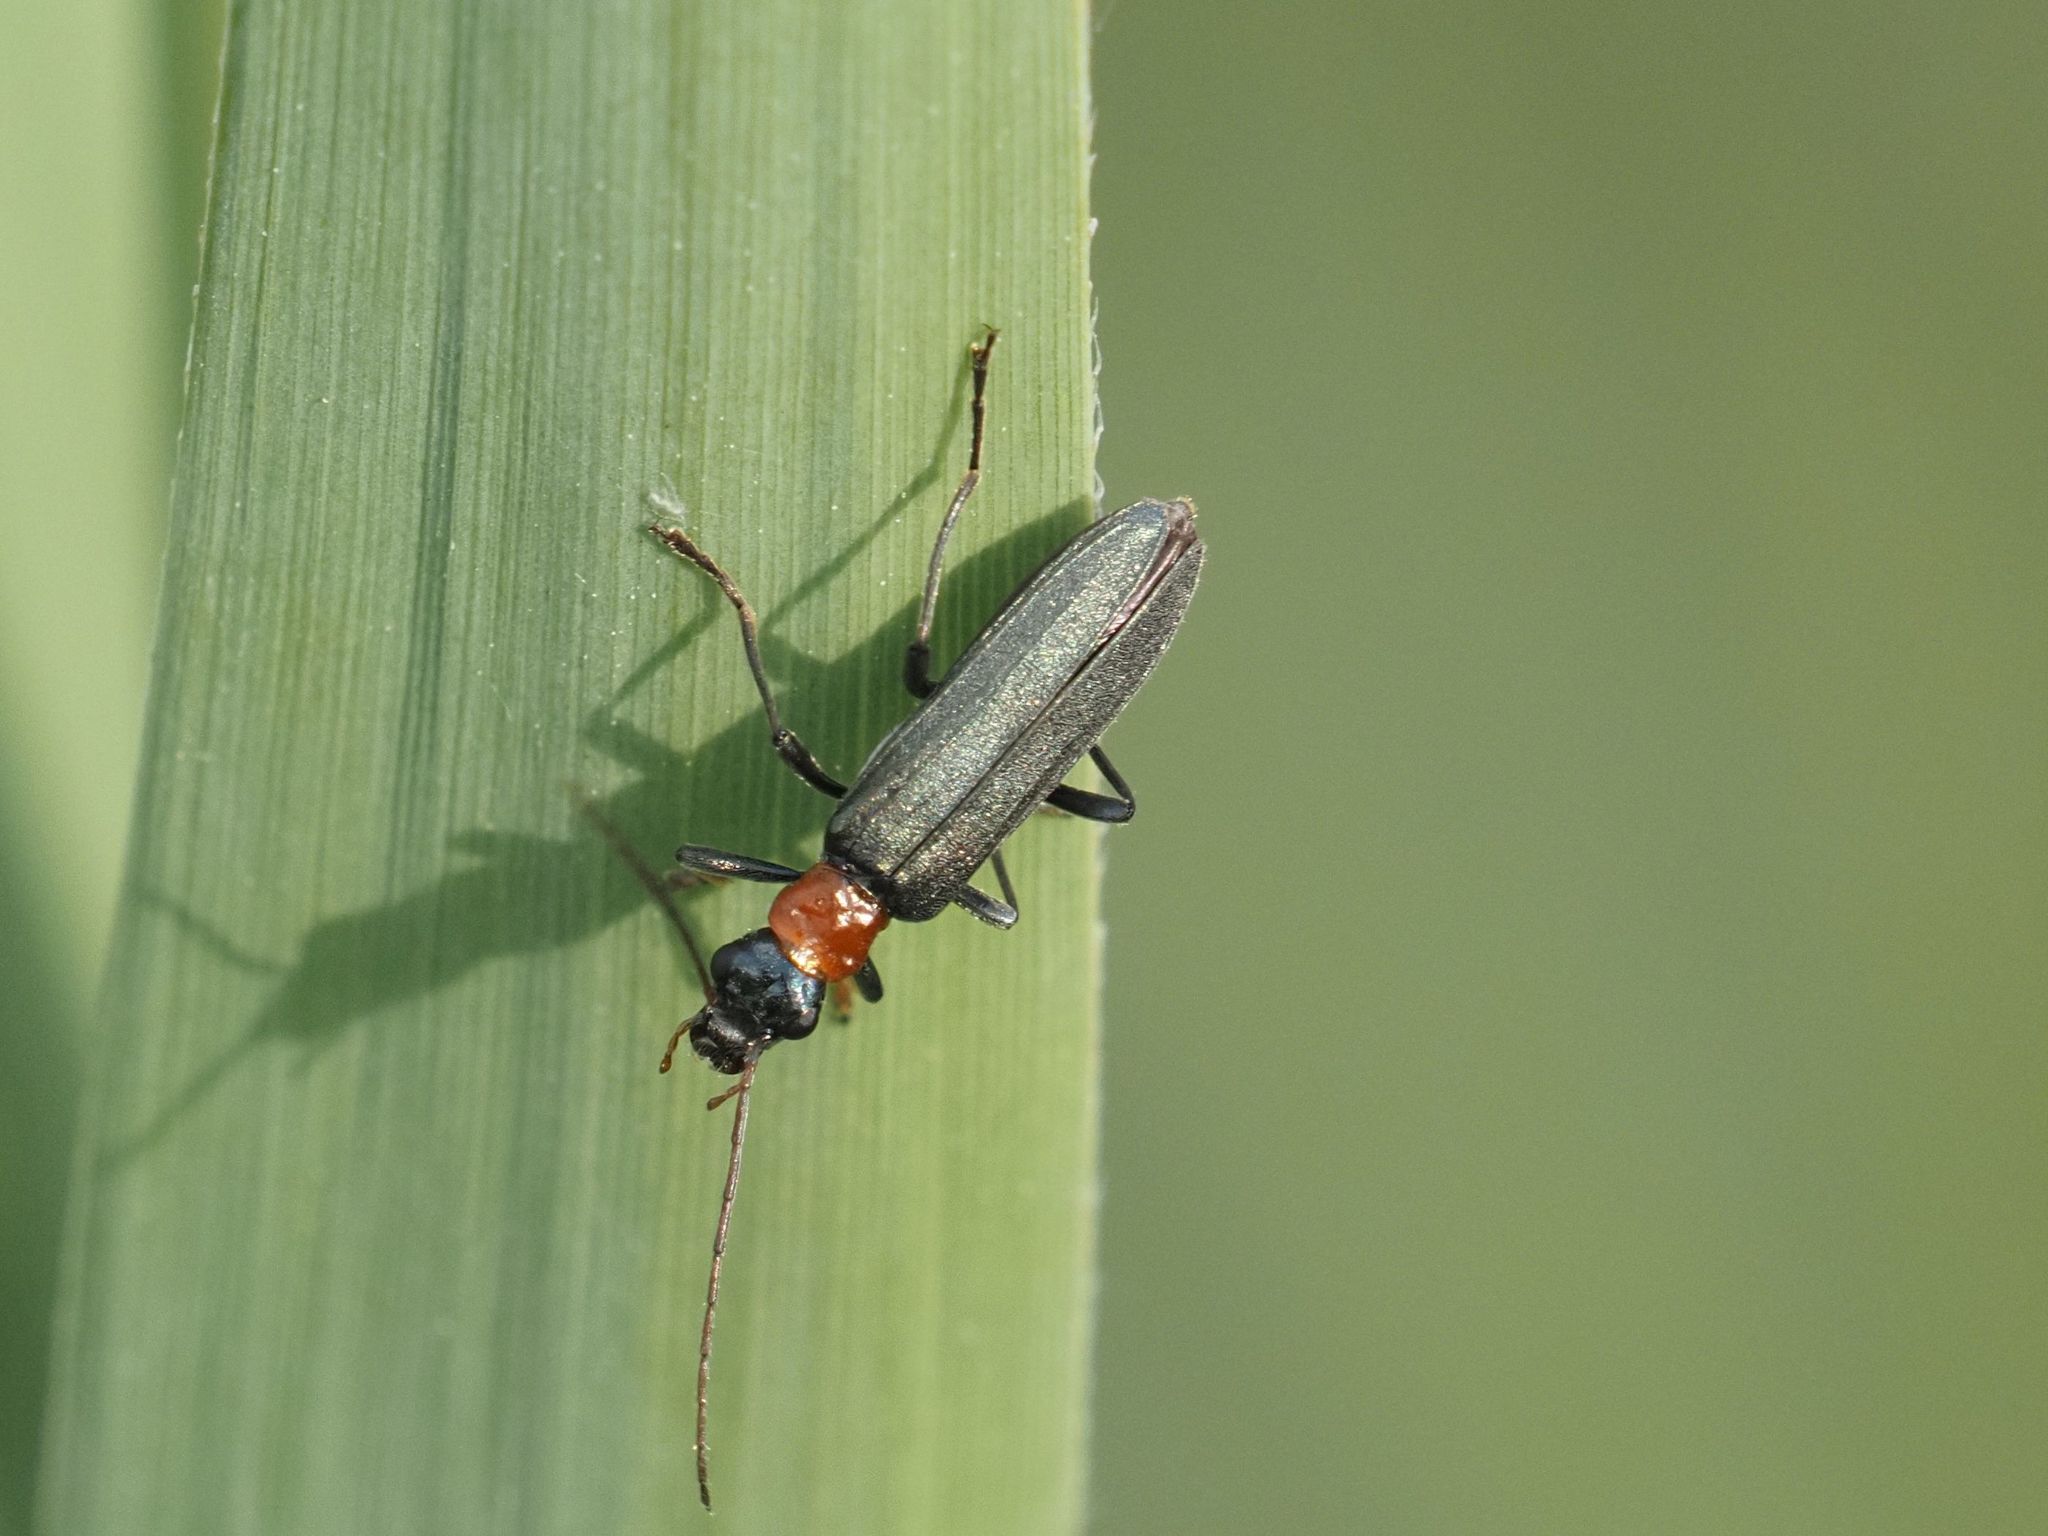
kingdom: Animalia
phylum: Arthropoda
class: Insecta
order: Coleoptera
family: Oedemeridae
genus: Oedemera
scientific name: Oedemera croceicollis
